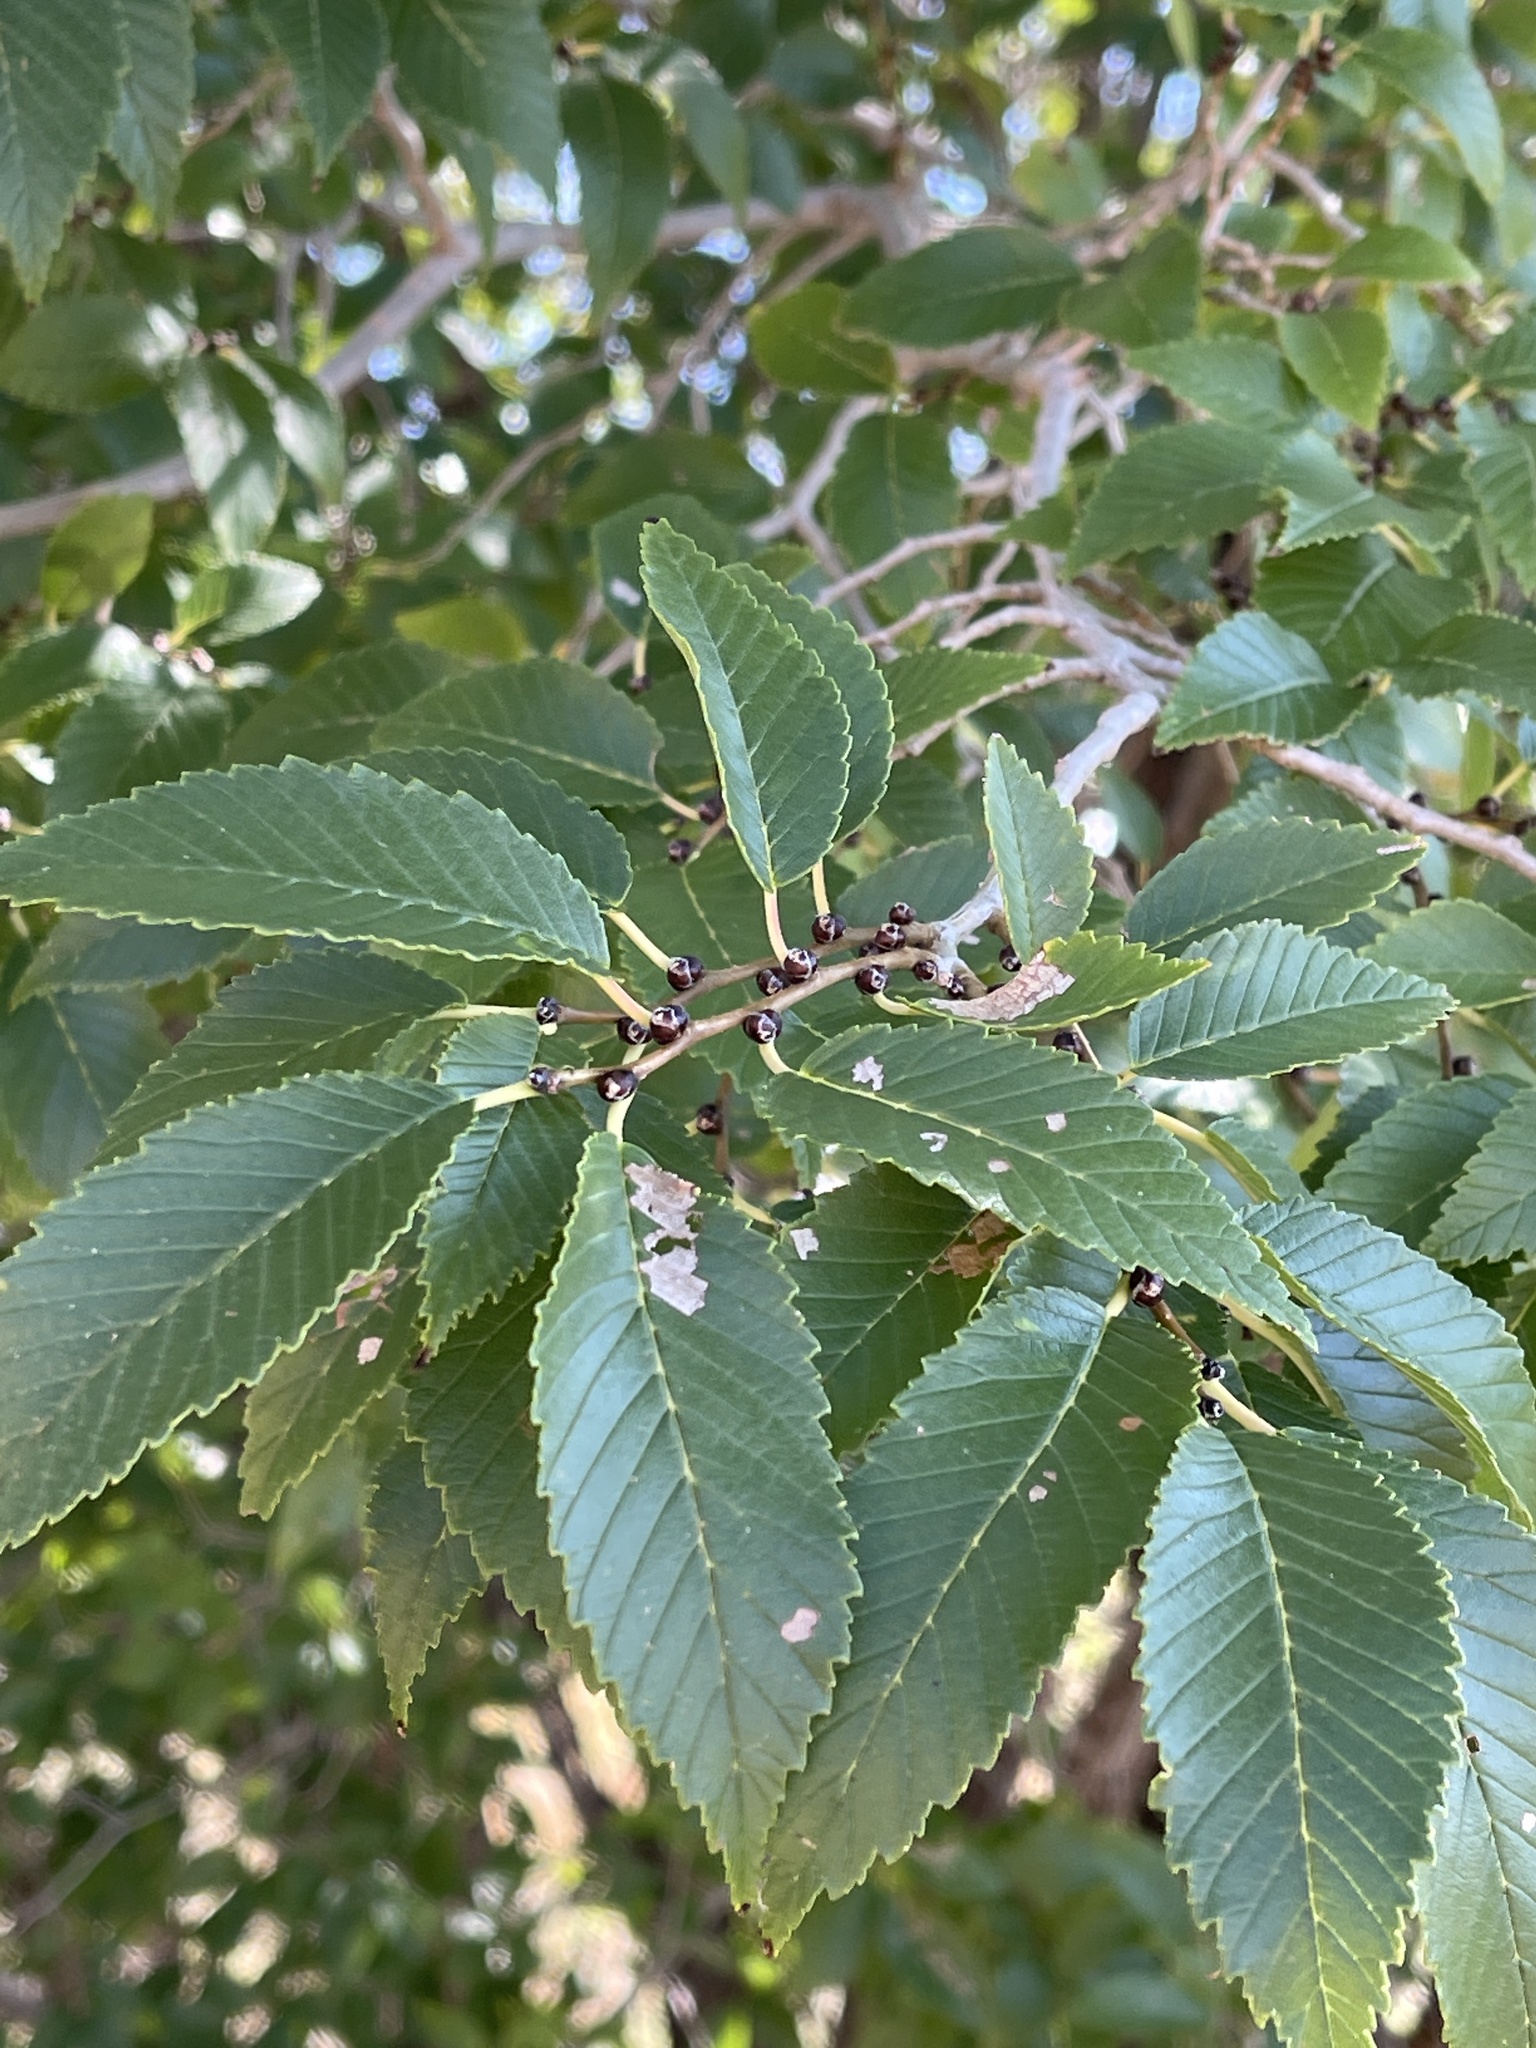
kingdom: Plantae
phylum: Tracheophyta
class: Magnoliopsida
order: Rosales
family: Ulmaceae
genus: Ulmus
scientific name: Ulmus pumila
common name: Siberian elm
